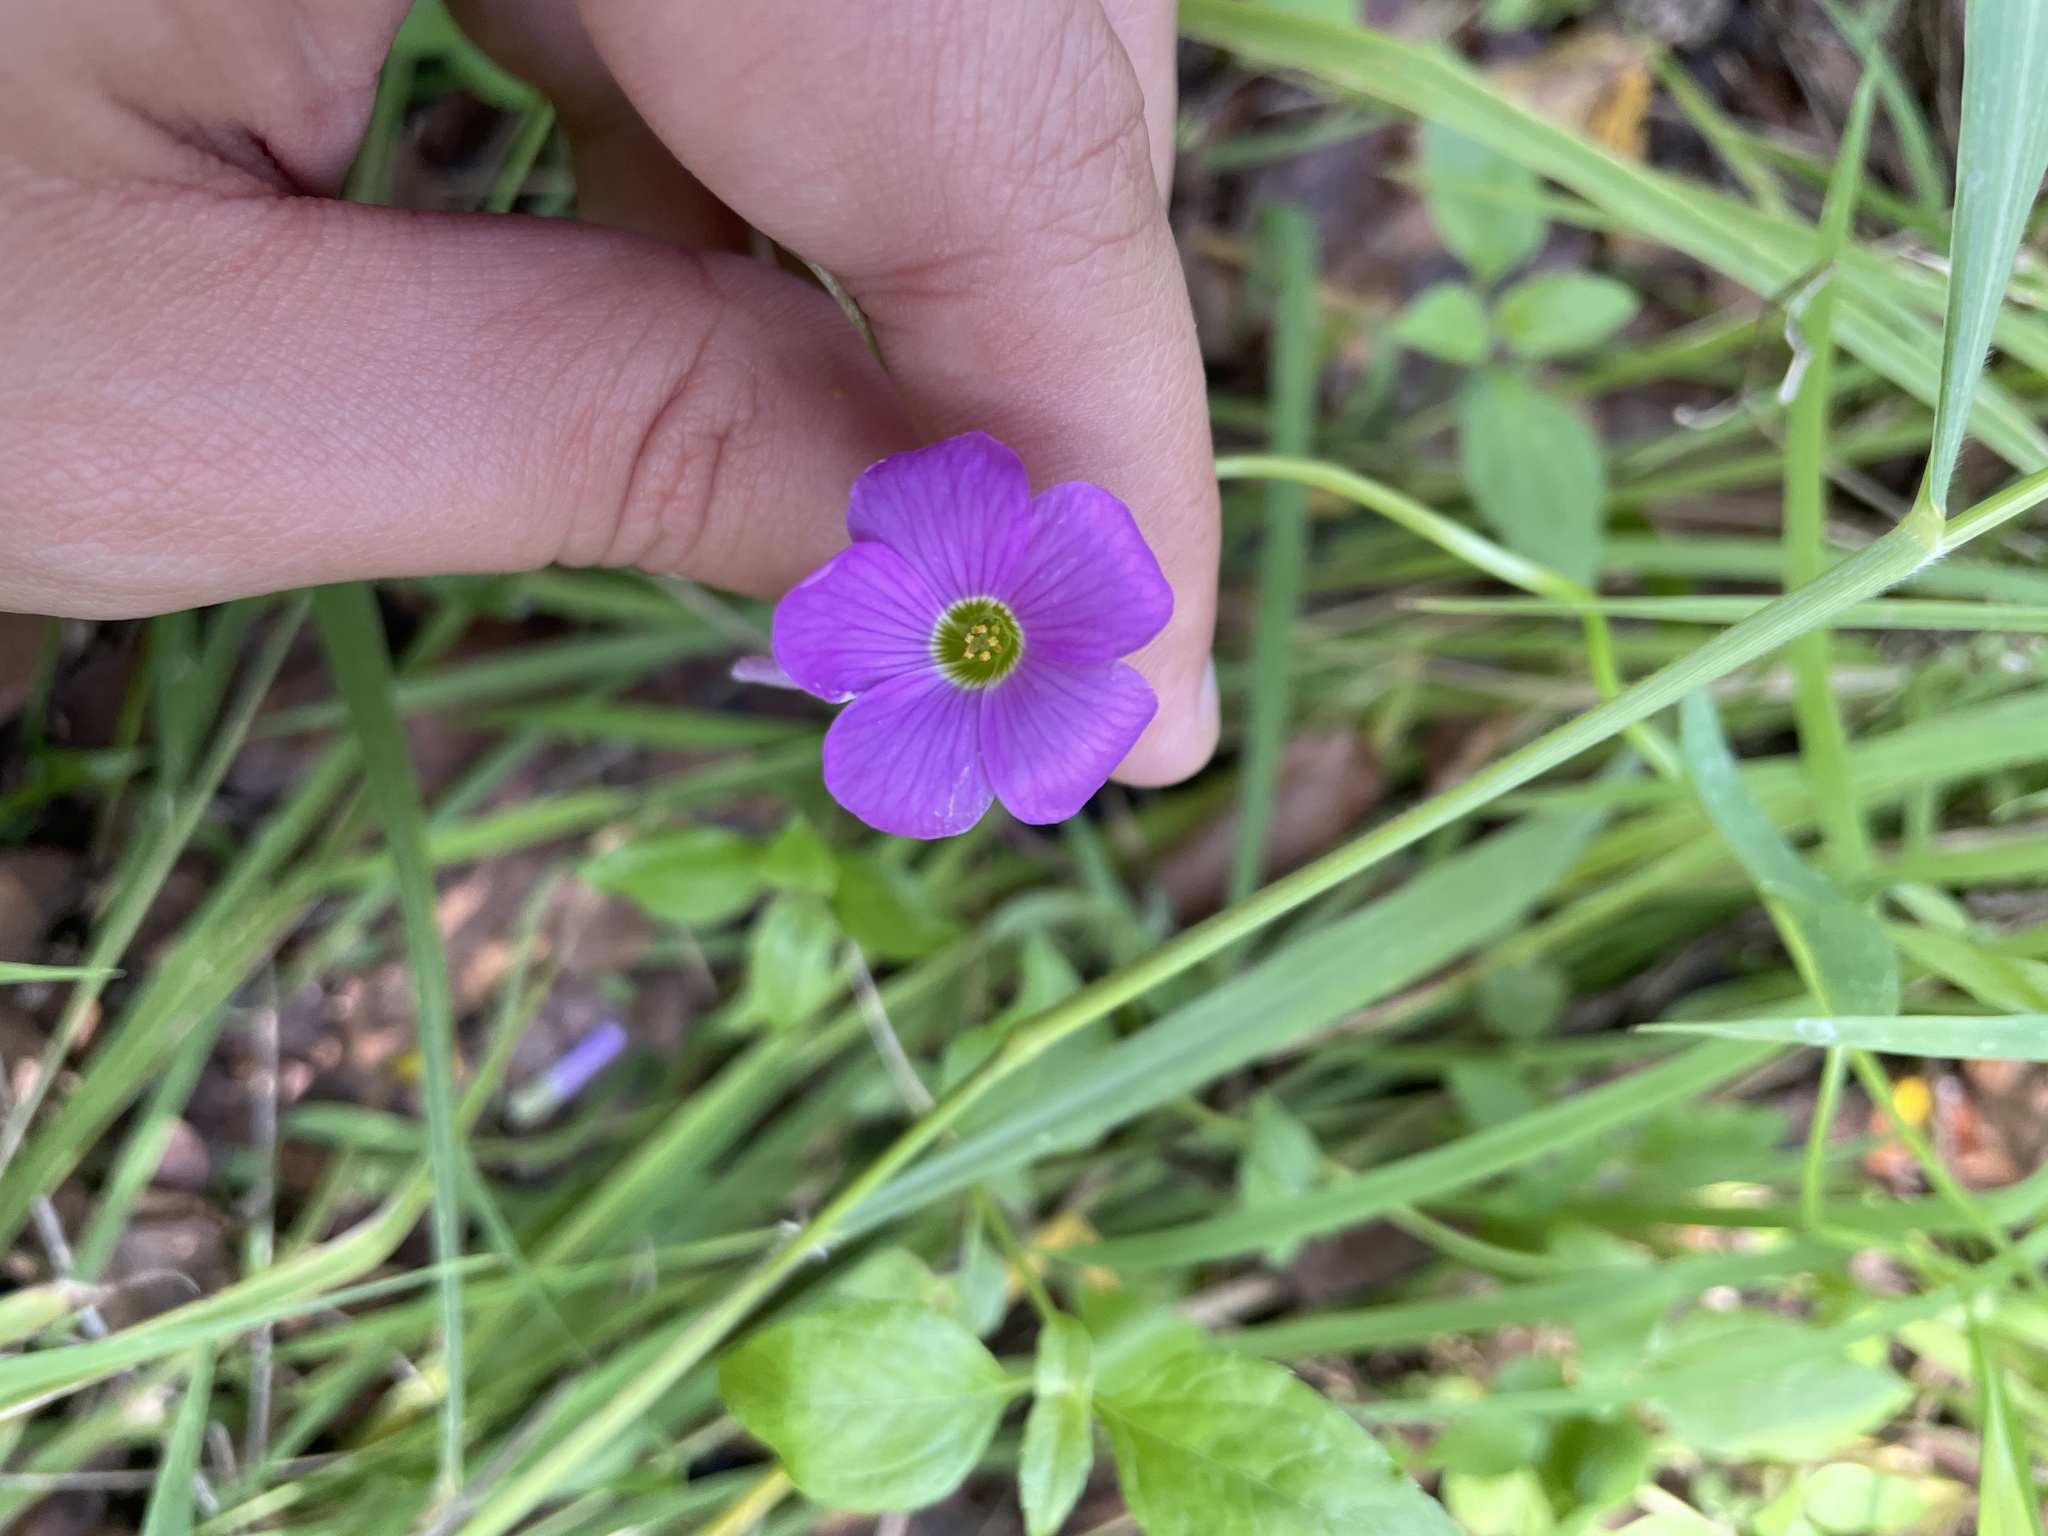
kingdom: Plantae
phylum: Tracheophyta
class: Magnoliopsida
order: Oxalidales
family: Oxalidaceae
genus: Oxalis
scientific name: Oxalis drummondii
